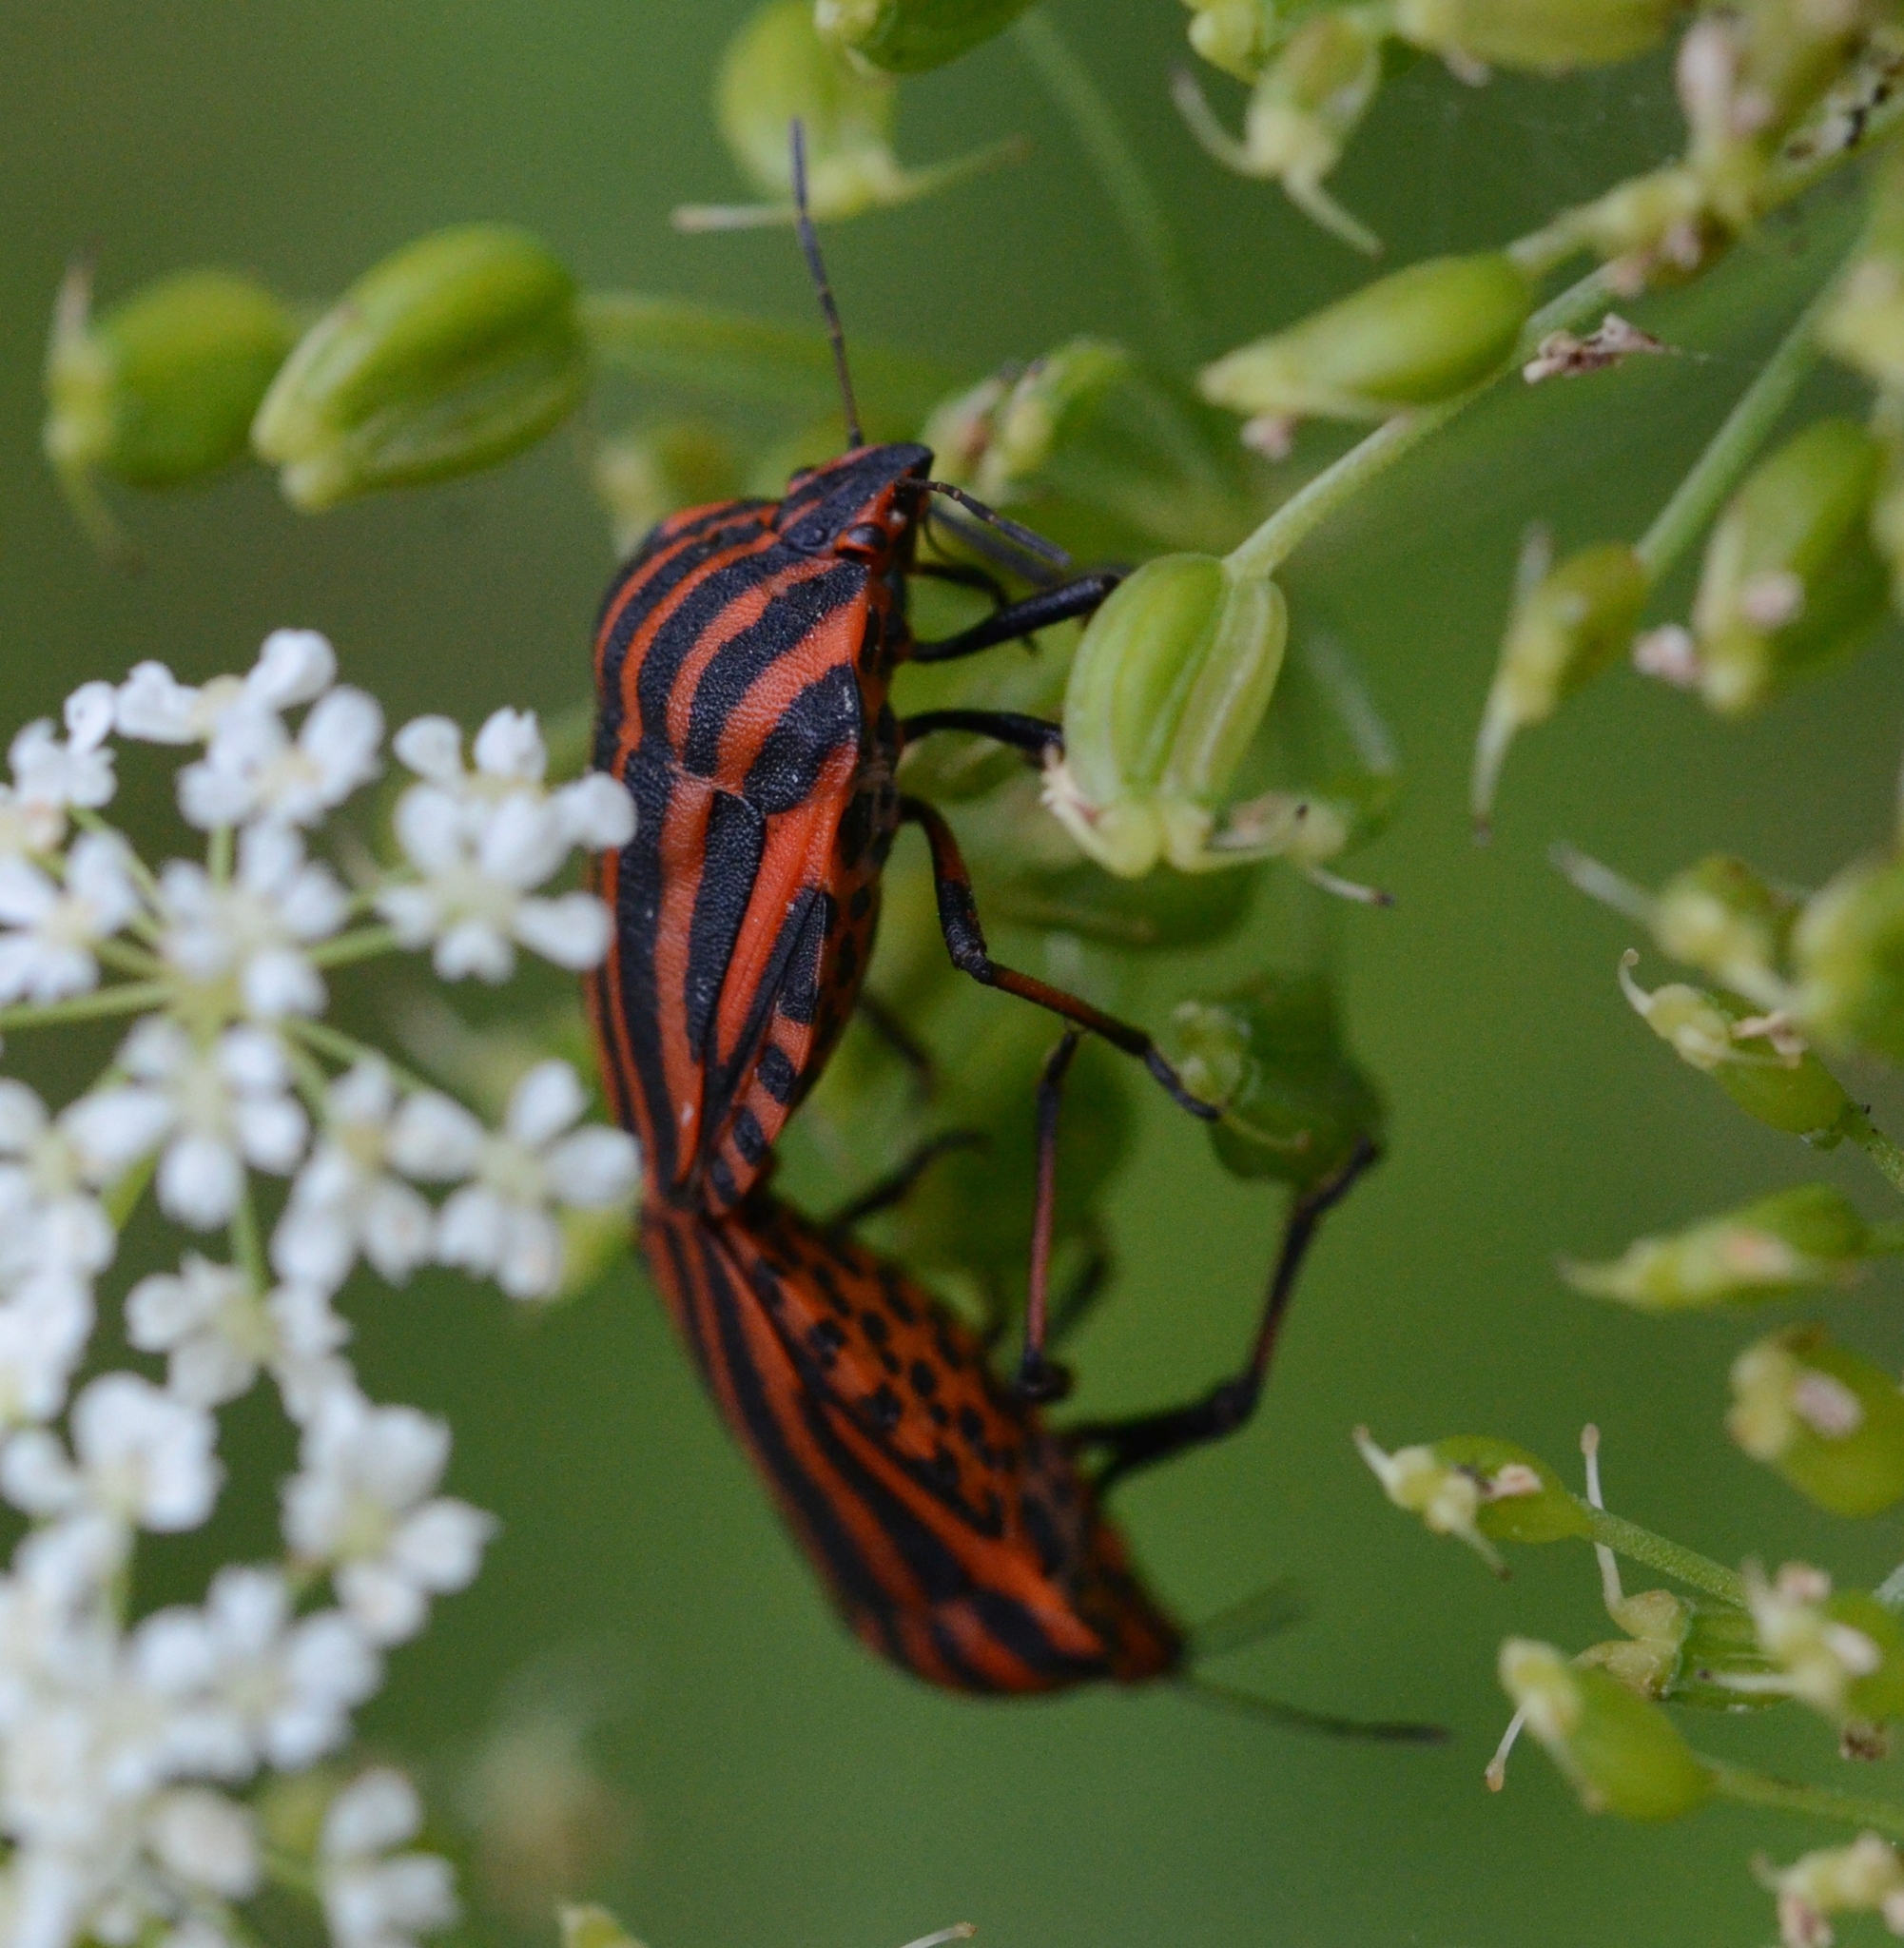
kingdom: Animalia
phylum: Arthropoda
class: Insecta
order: Hemiptera
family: Pentatomidae
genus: Graphosoma
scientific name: Graphosoma italicum
